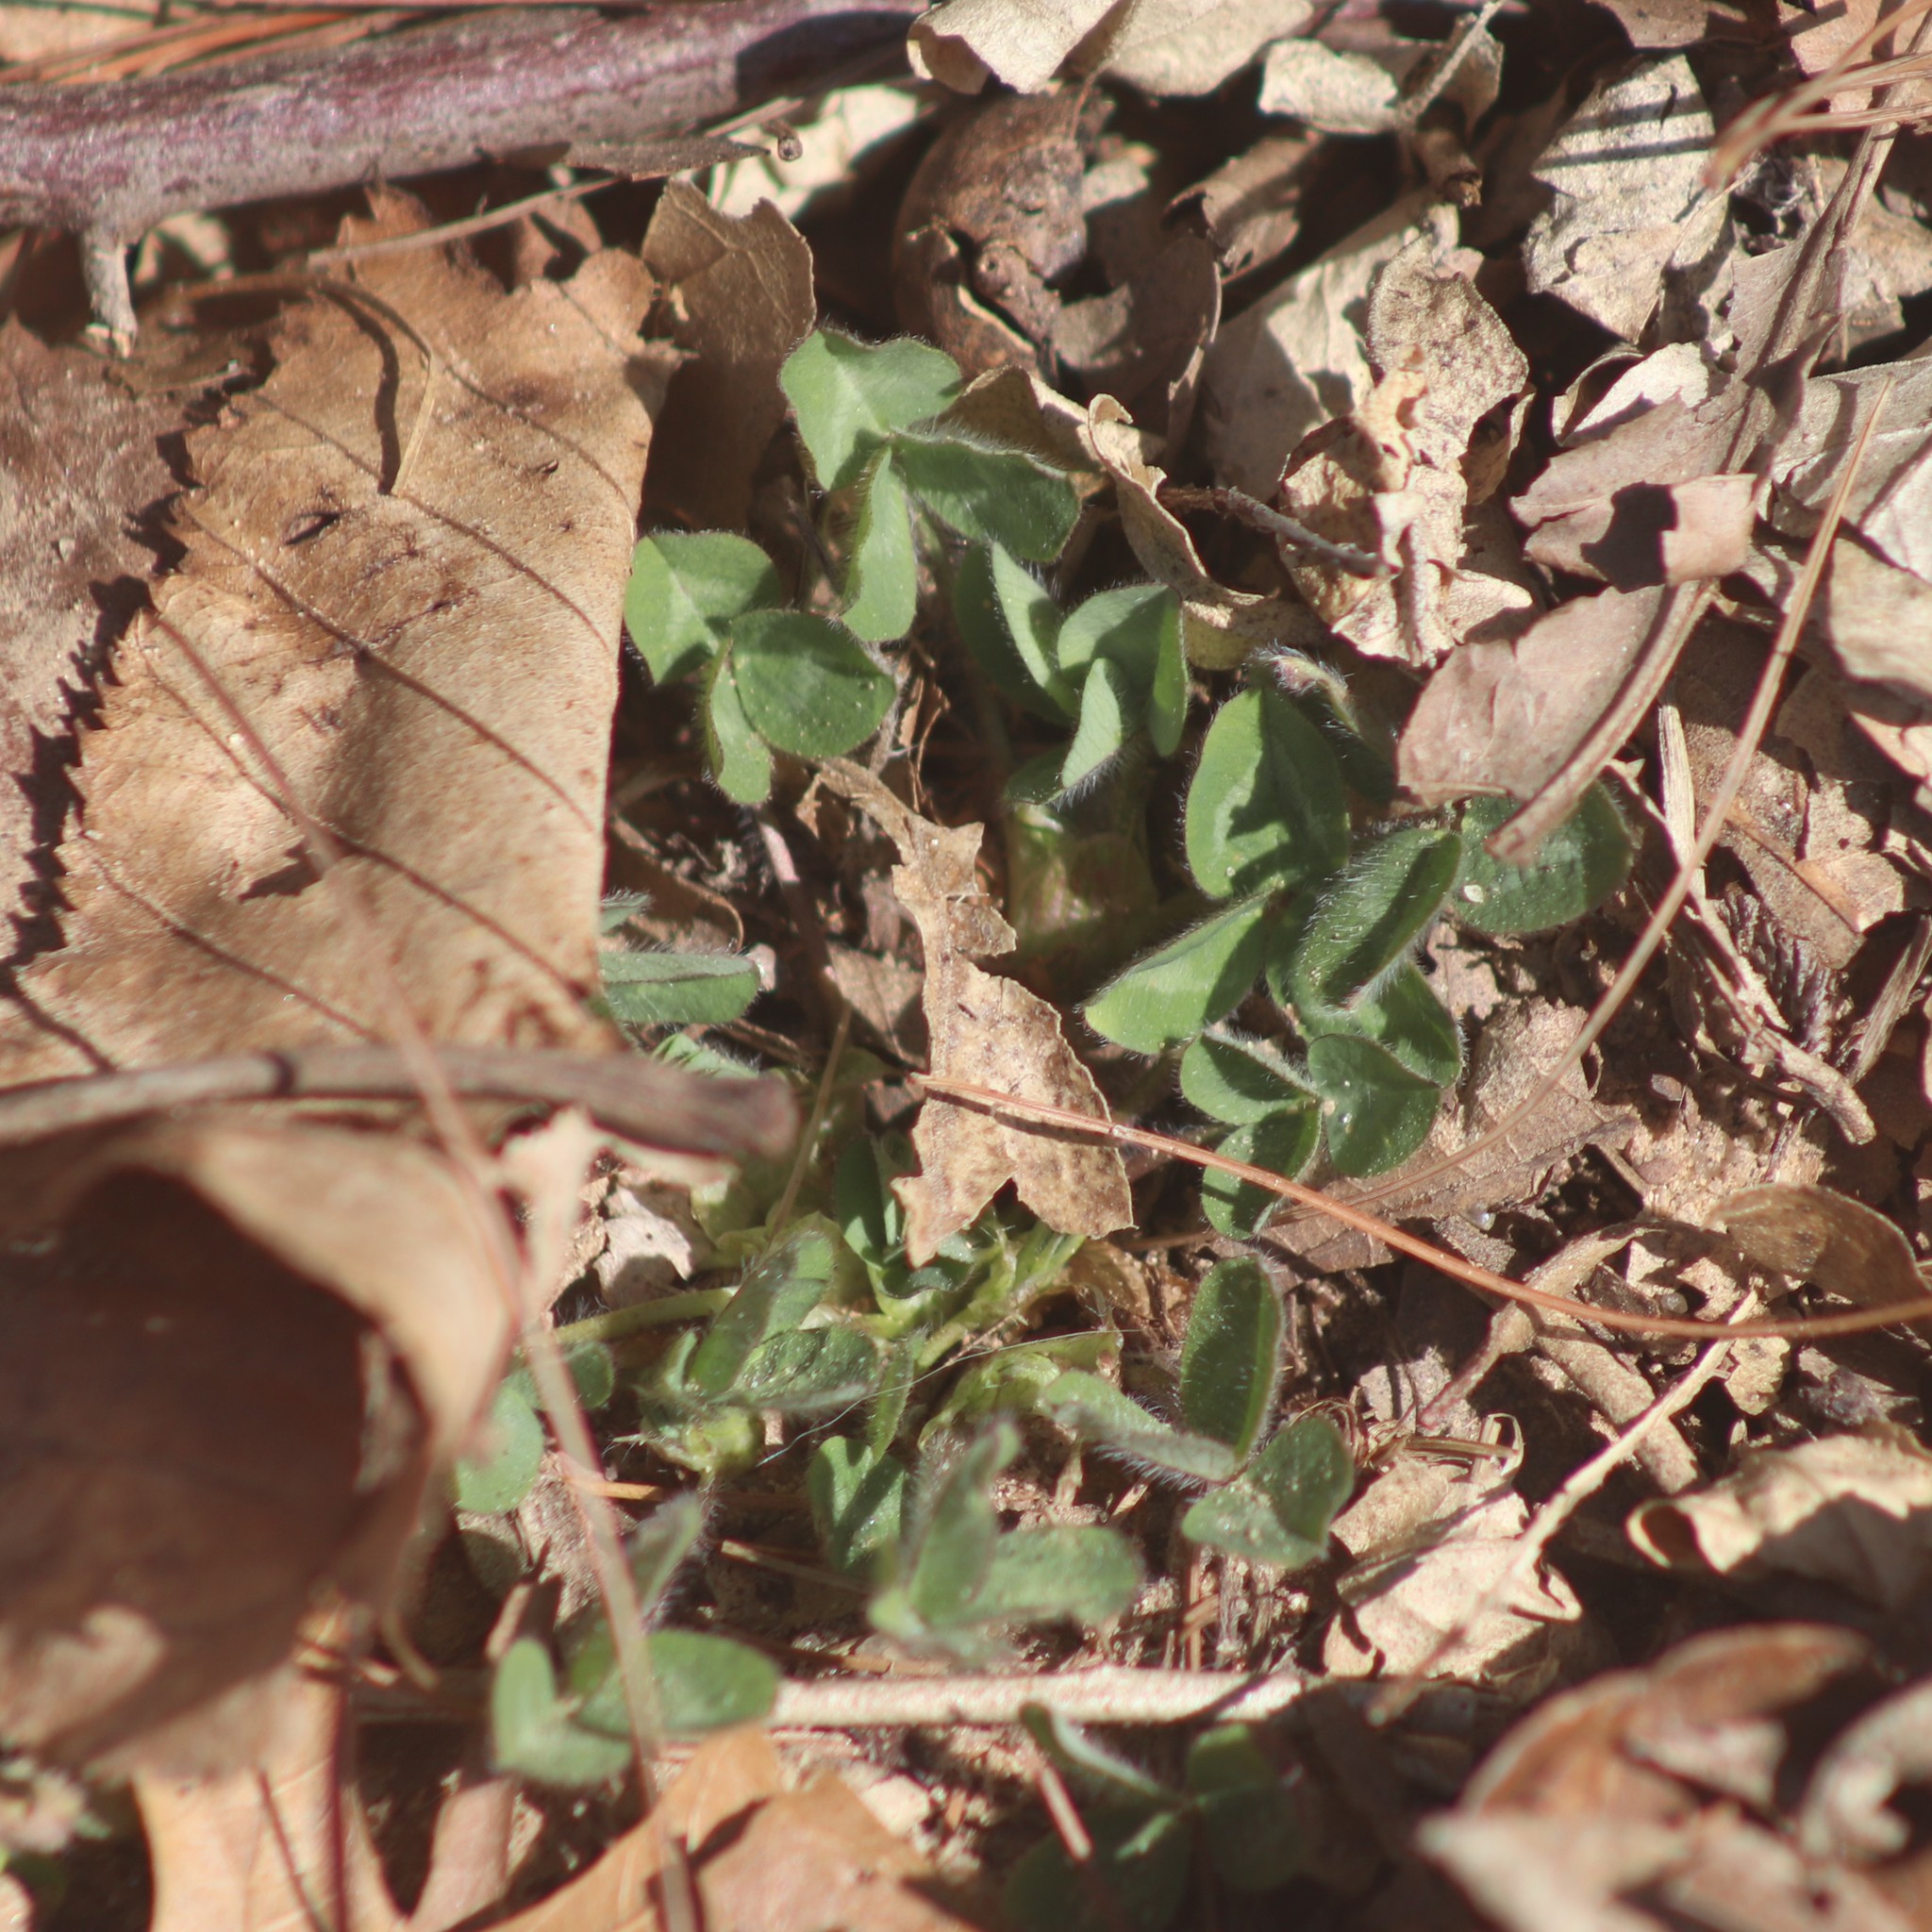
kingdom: Plantae
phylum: Tracheophyta
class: Magnoliopsida
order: Fabales
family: Fabaceae
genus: Trifolium
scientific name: Trifolium pratense
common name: Red clover
